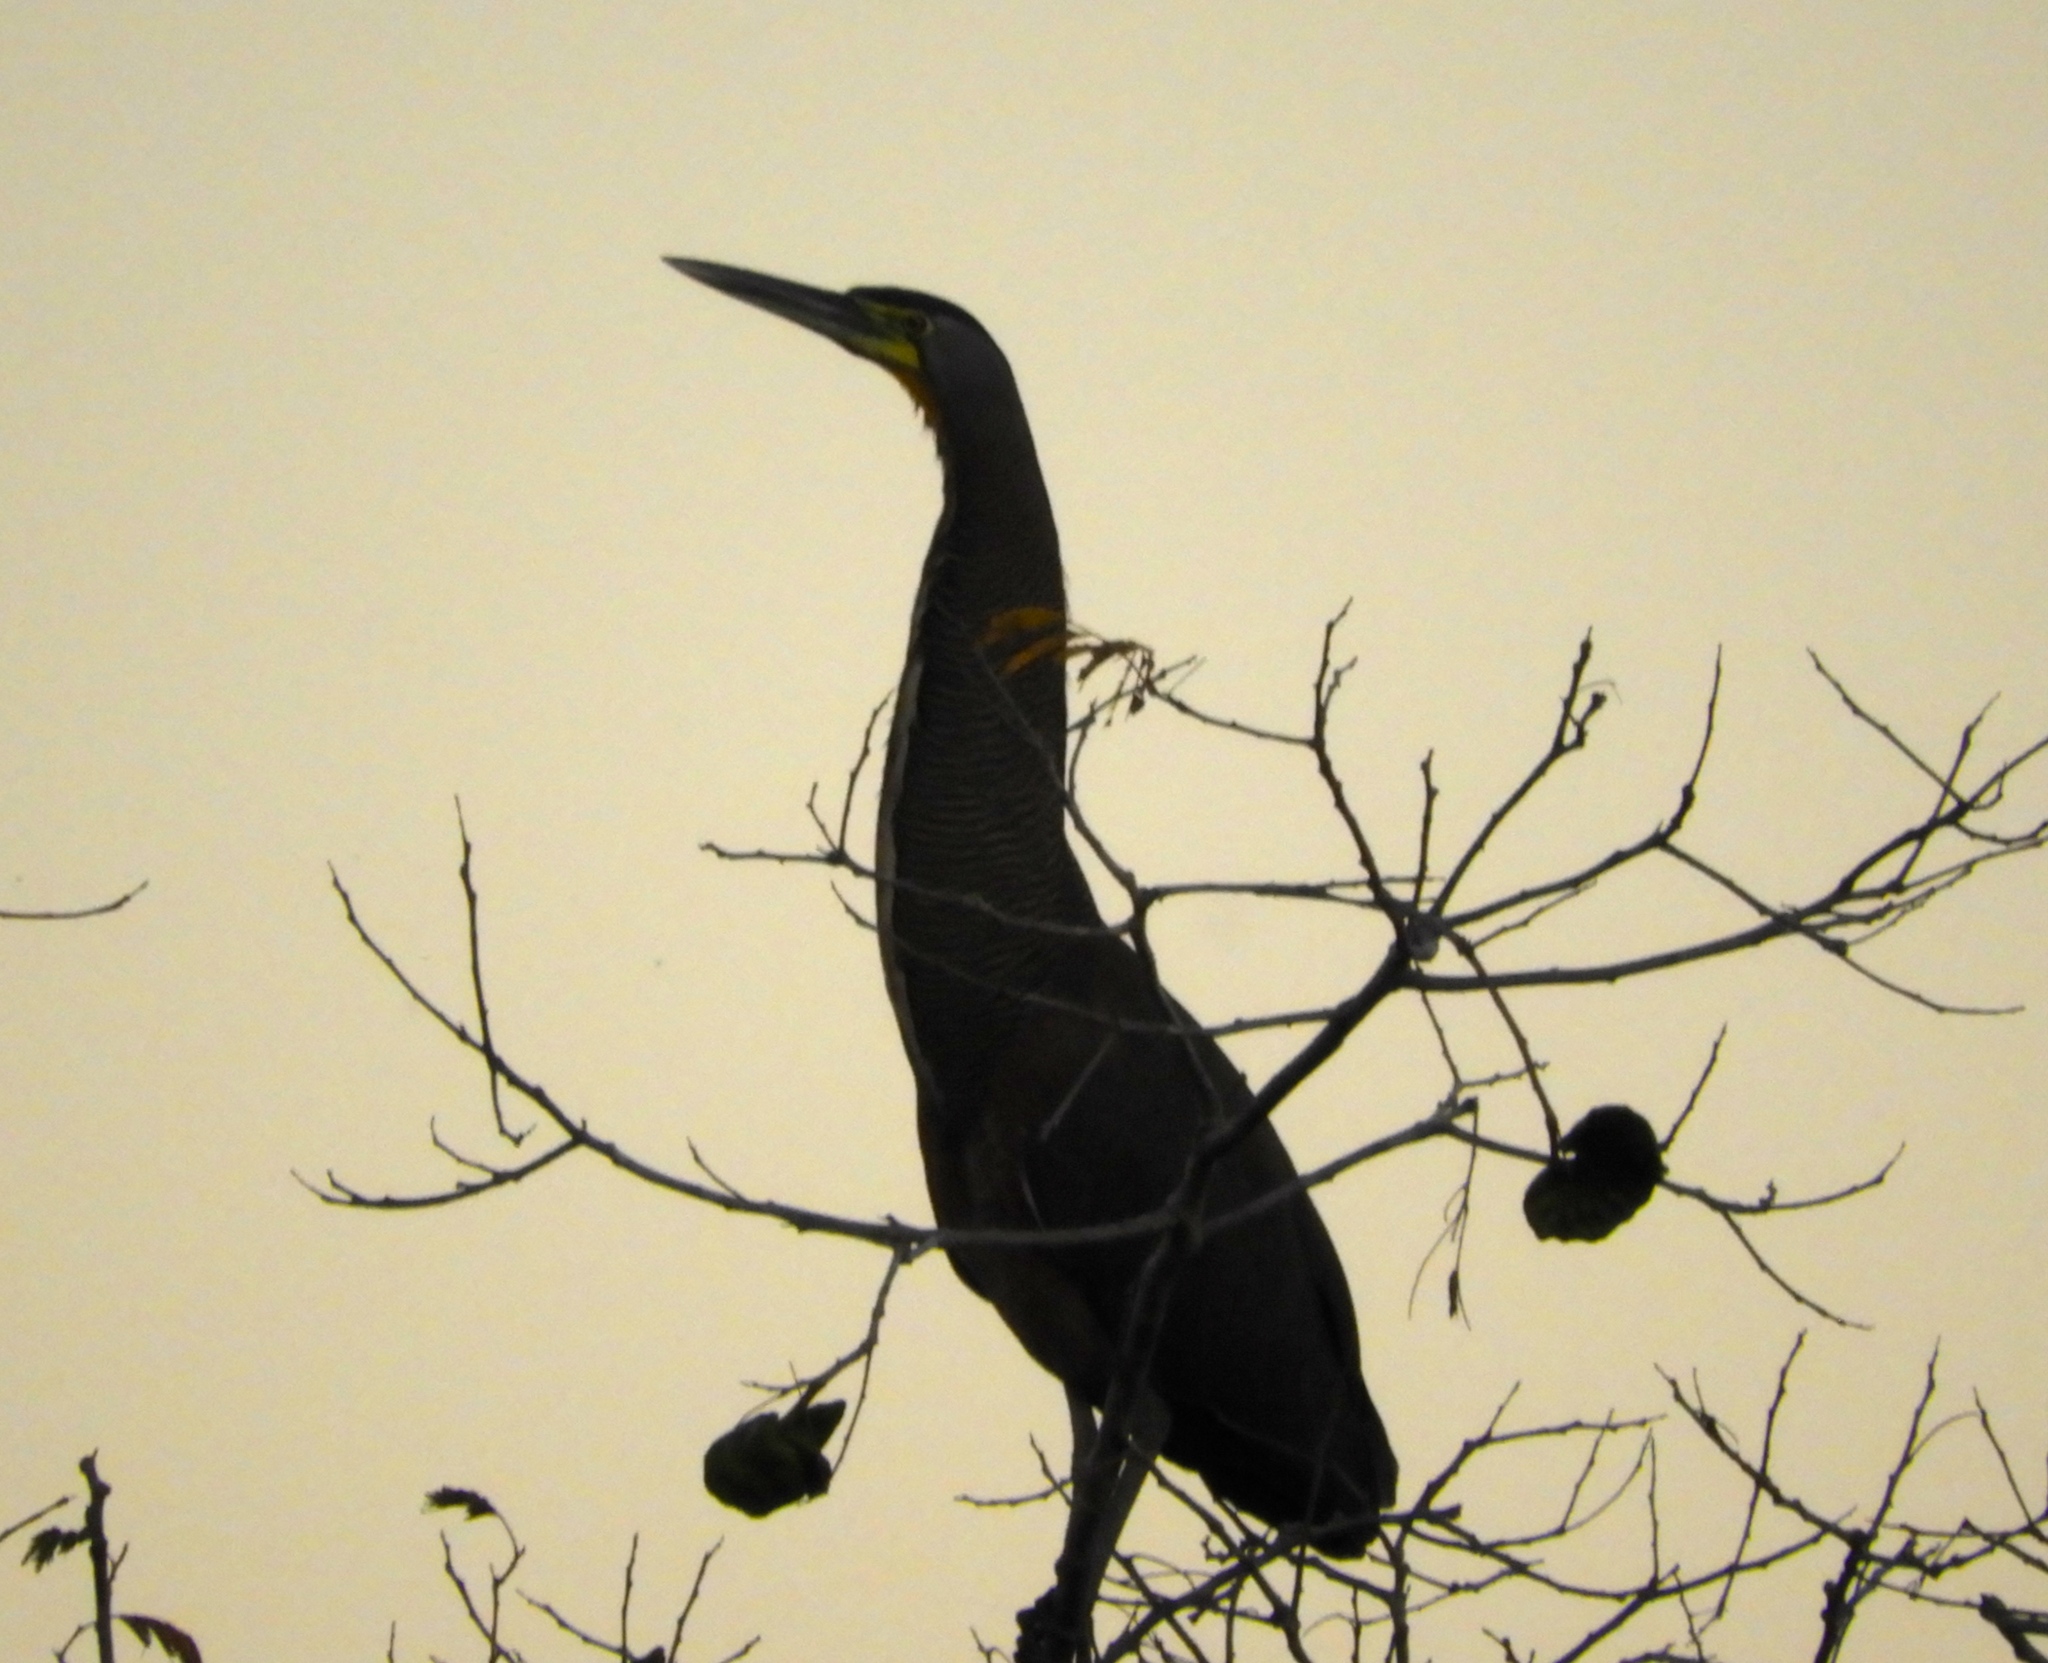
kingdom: Animalia
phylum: Chordata
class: Aves
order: Pelecaniformes
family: Ardeidae
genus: Tigrisoma
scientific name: Tigrisoma mexicanum
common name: Bare-throated tiger-heron
